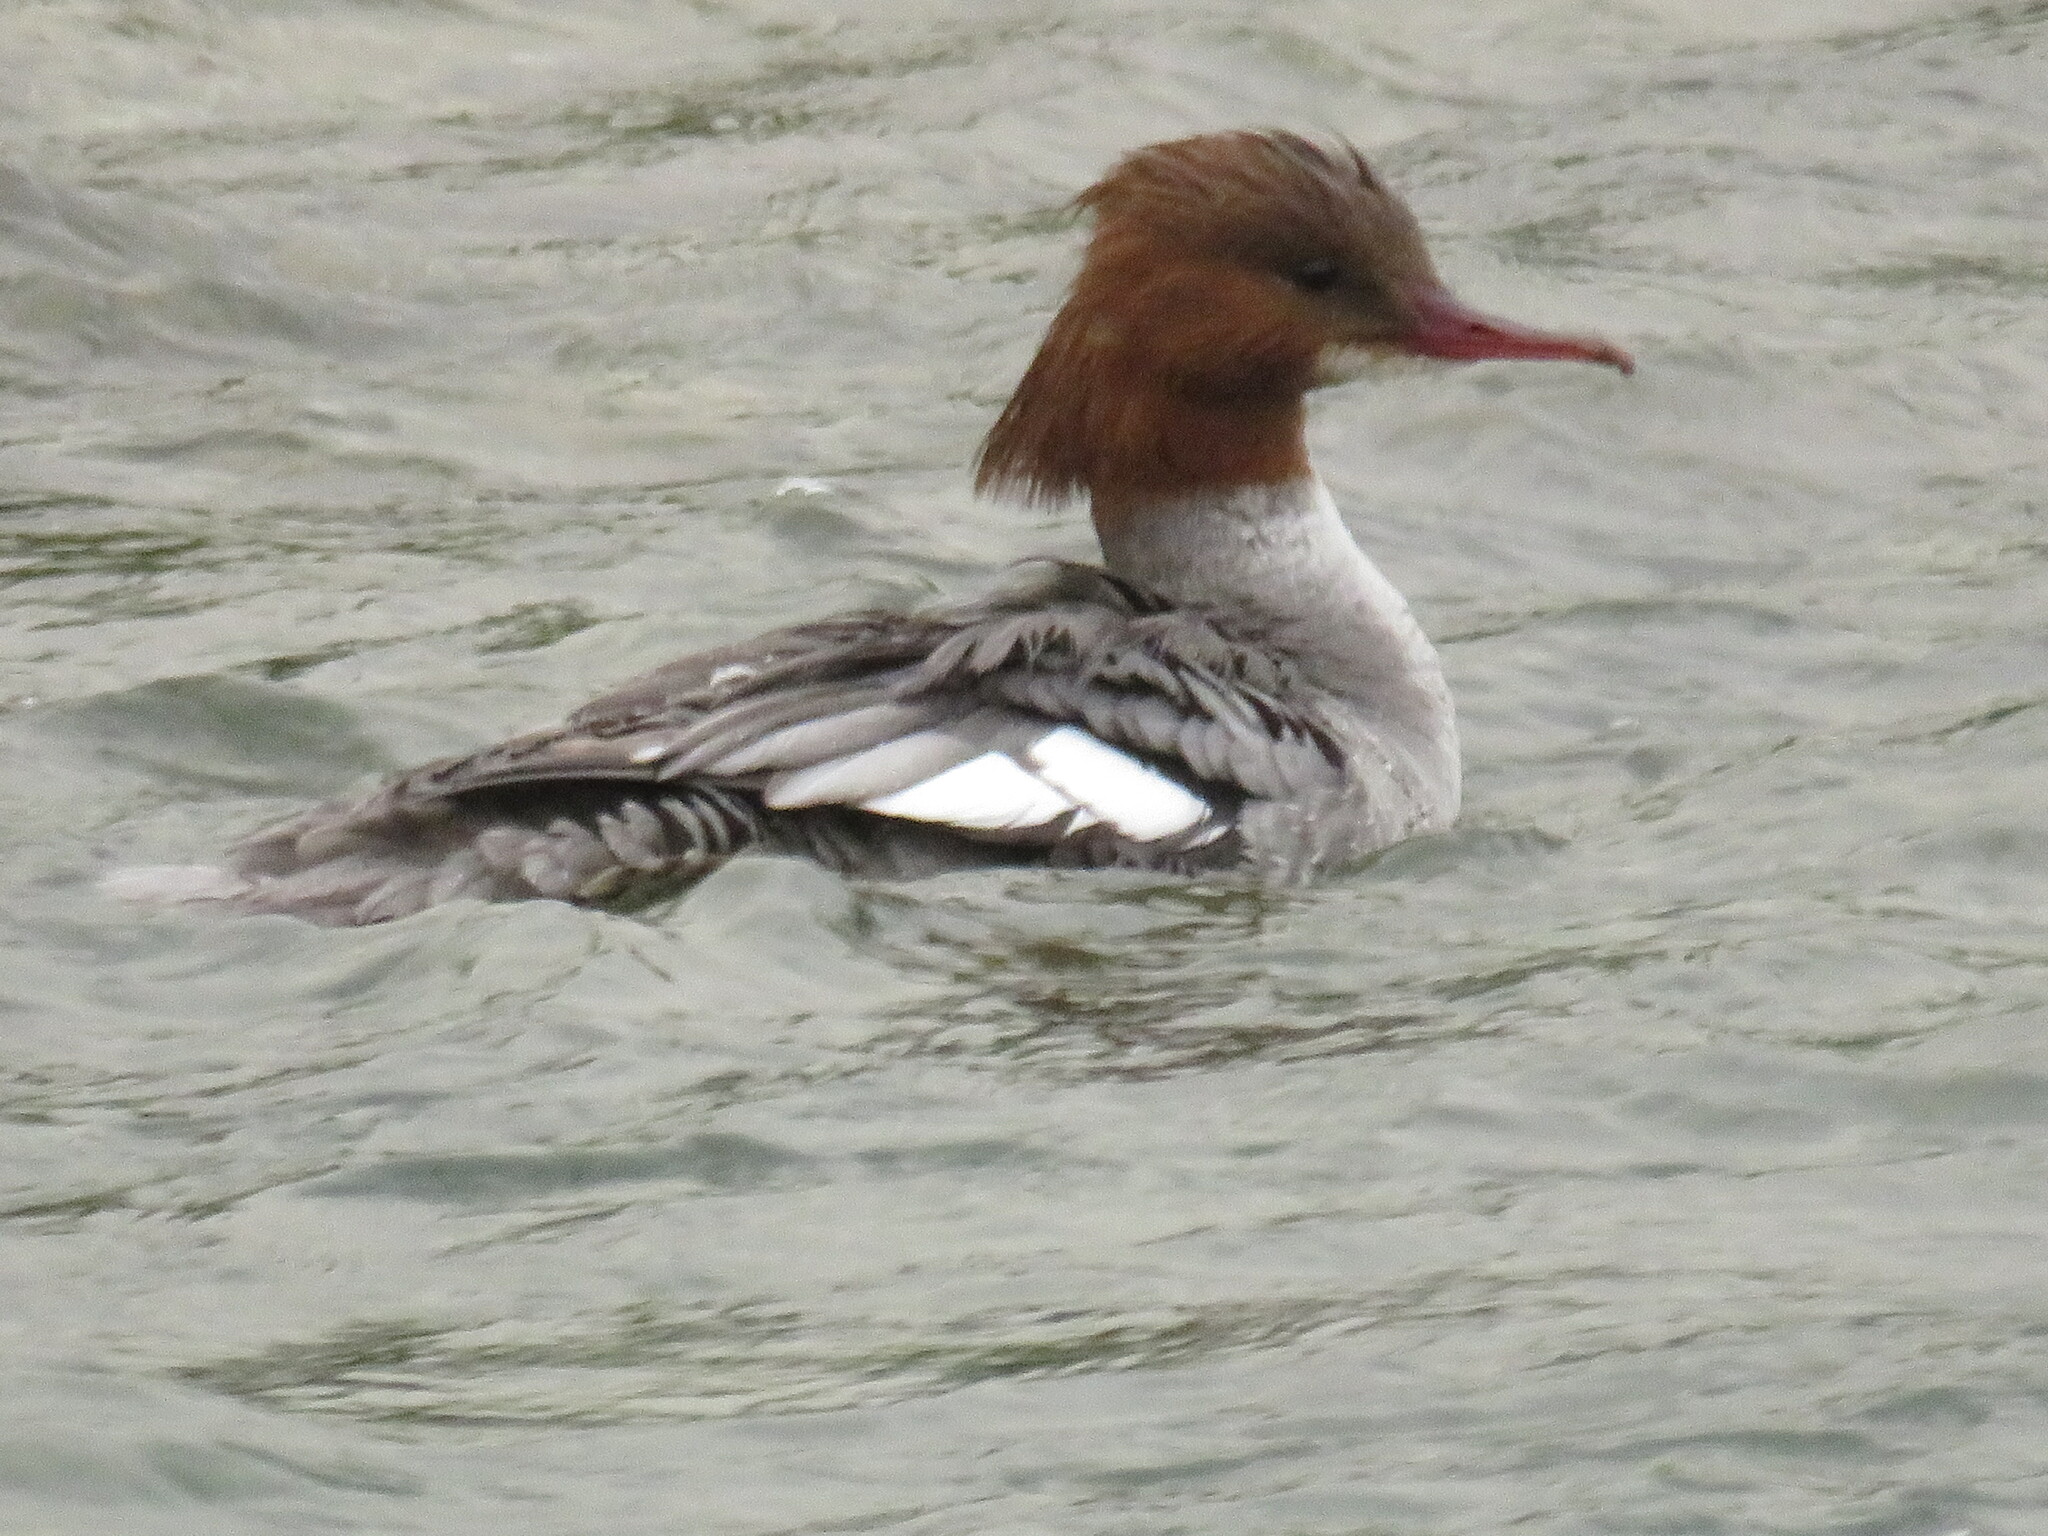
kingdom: Animalia
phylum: Chordata
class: Aves
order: Anseriformes
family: Anatidae
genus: Mergus
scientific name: Mergus merganser
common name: Common merganser
